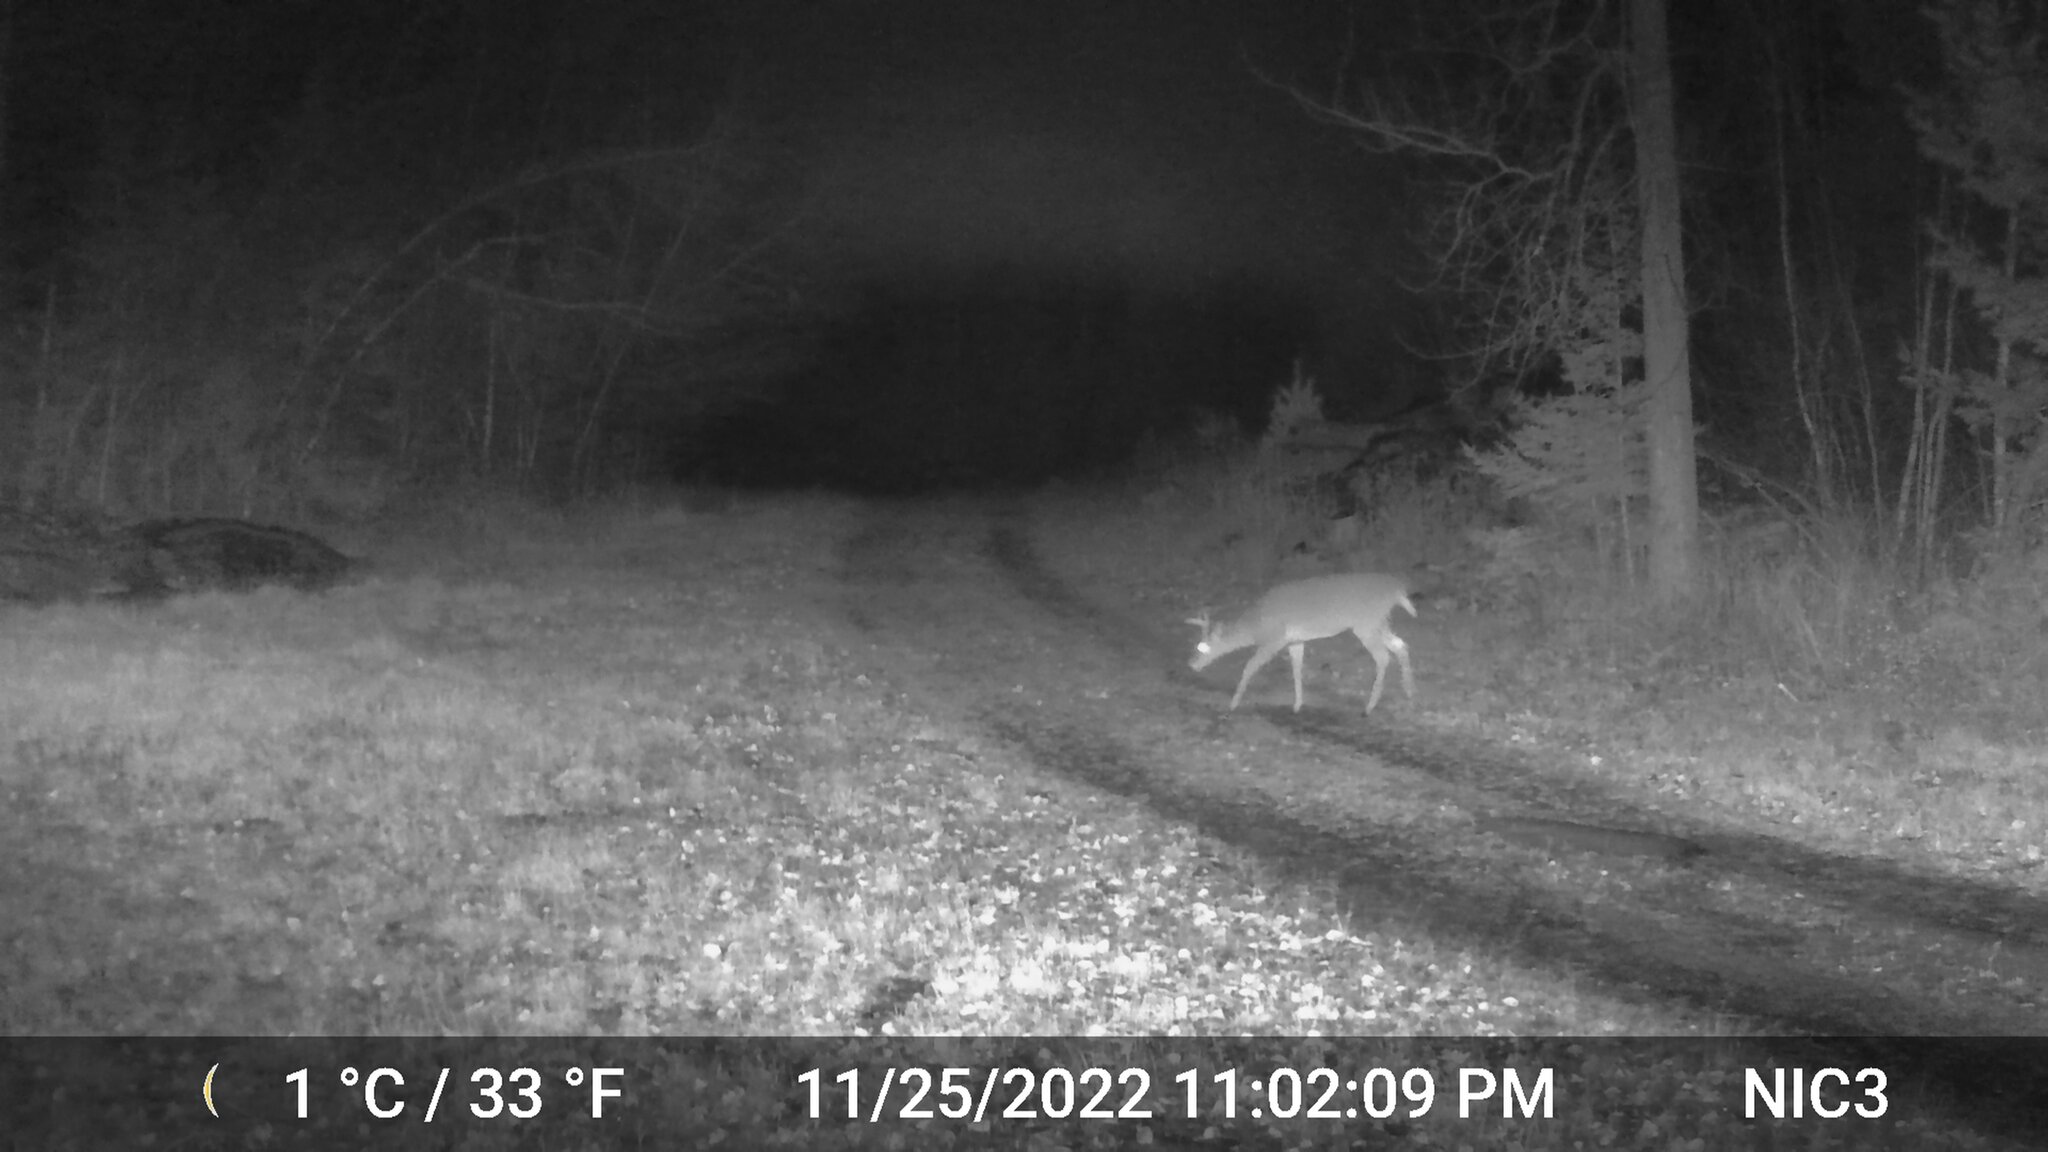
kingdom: Animalia
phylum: Chordata
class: Mammalia
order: Artiodactyla
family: Cervidae
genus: Odocoileus
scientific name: Odocoileus virginianus
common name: White-tailed deer
